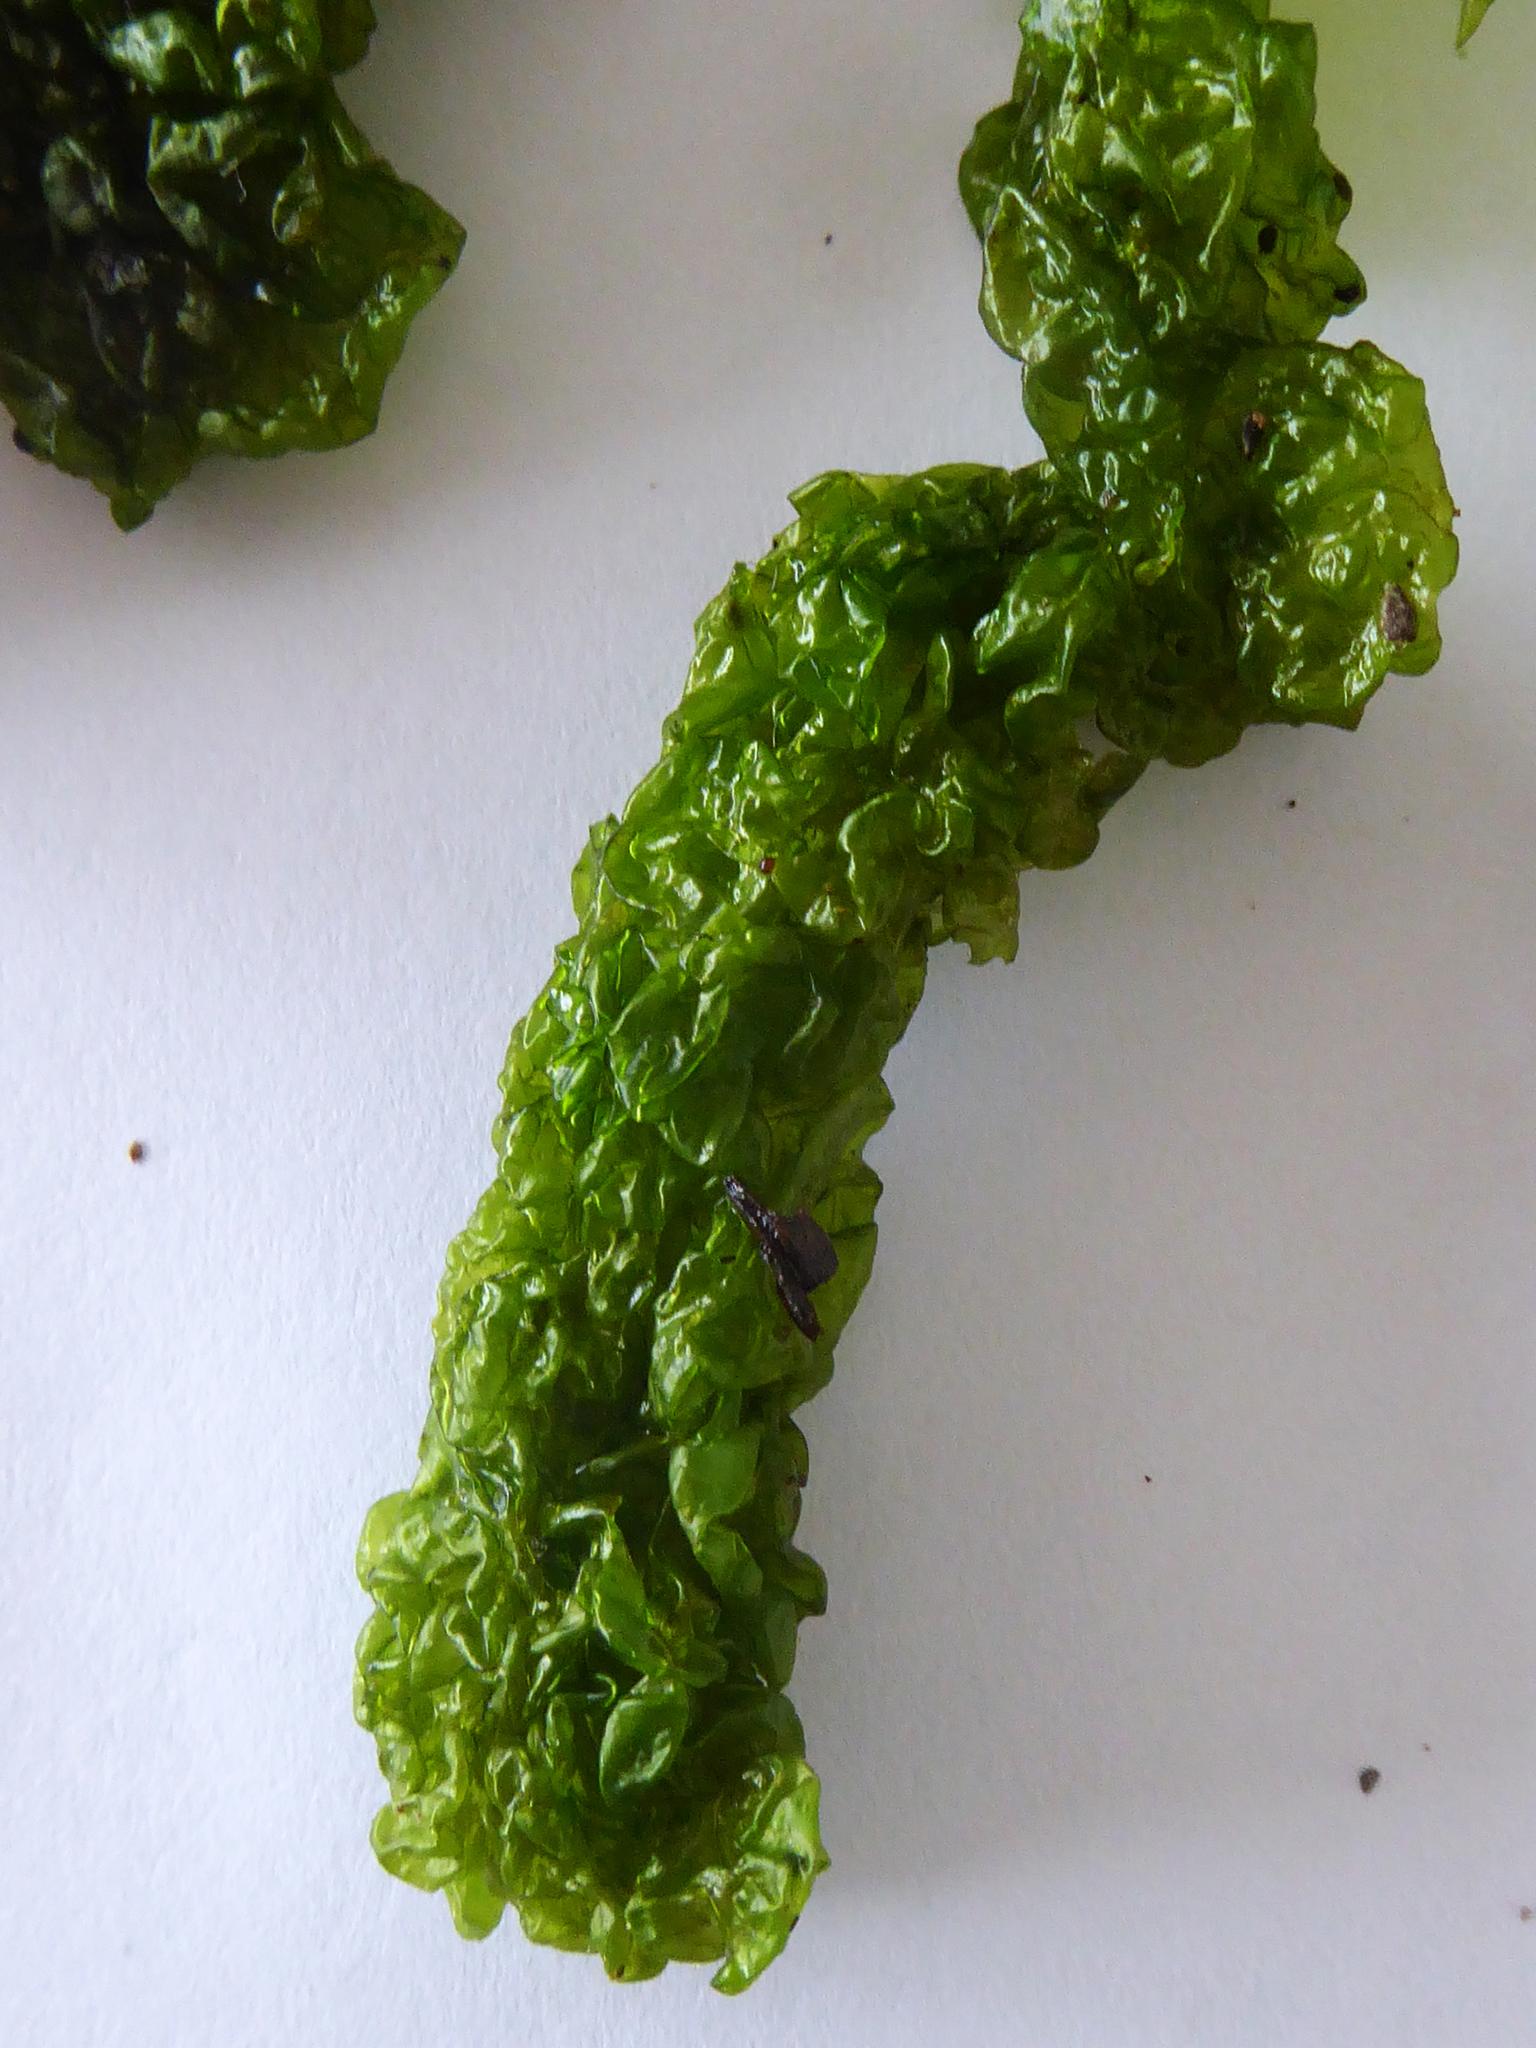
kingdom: Plantae
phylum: Chlorophyta
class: Ulvophyceae
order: Ulvales
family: Ulvaceae
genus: Ulva
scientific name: Ulva
